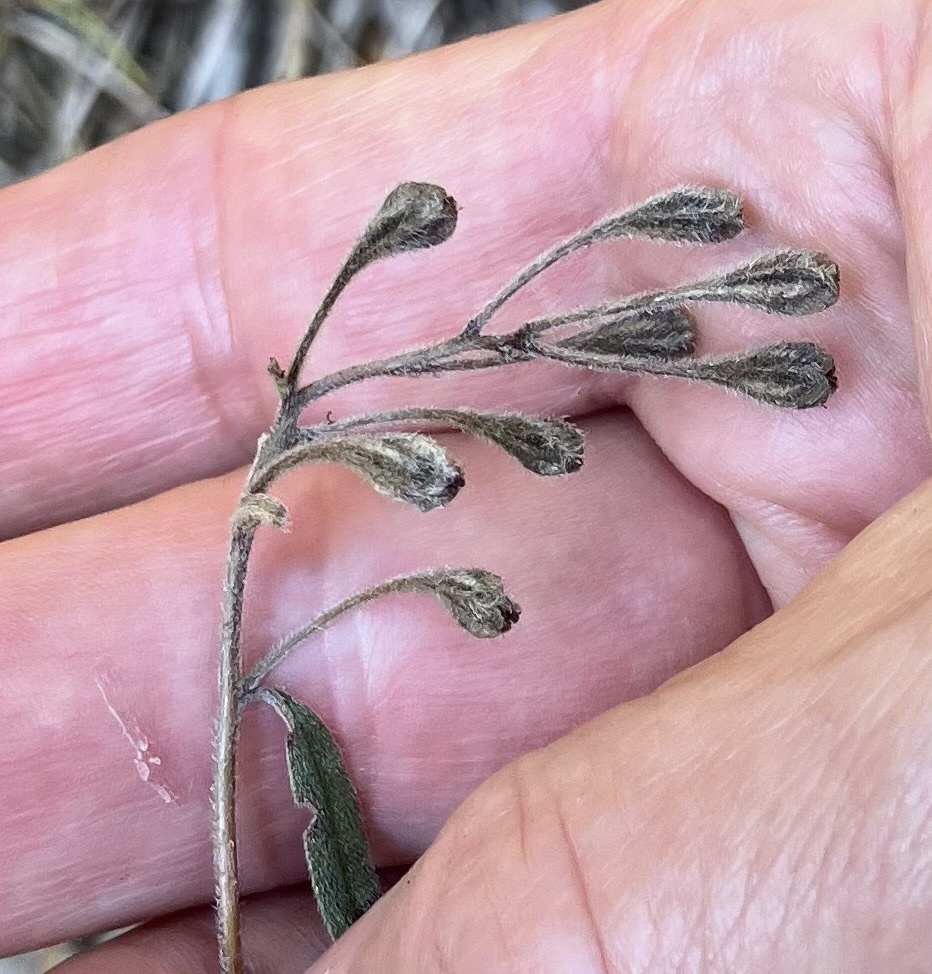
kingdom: Plantae
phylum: Tracheophyta
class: Magnoliopsida
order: Myrtales
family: Onagraceae
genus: Oenothera
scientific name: Oenothera fruticosa
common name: Southern sundrops
